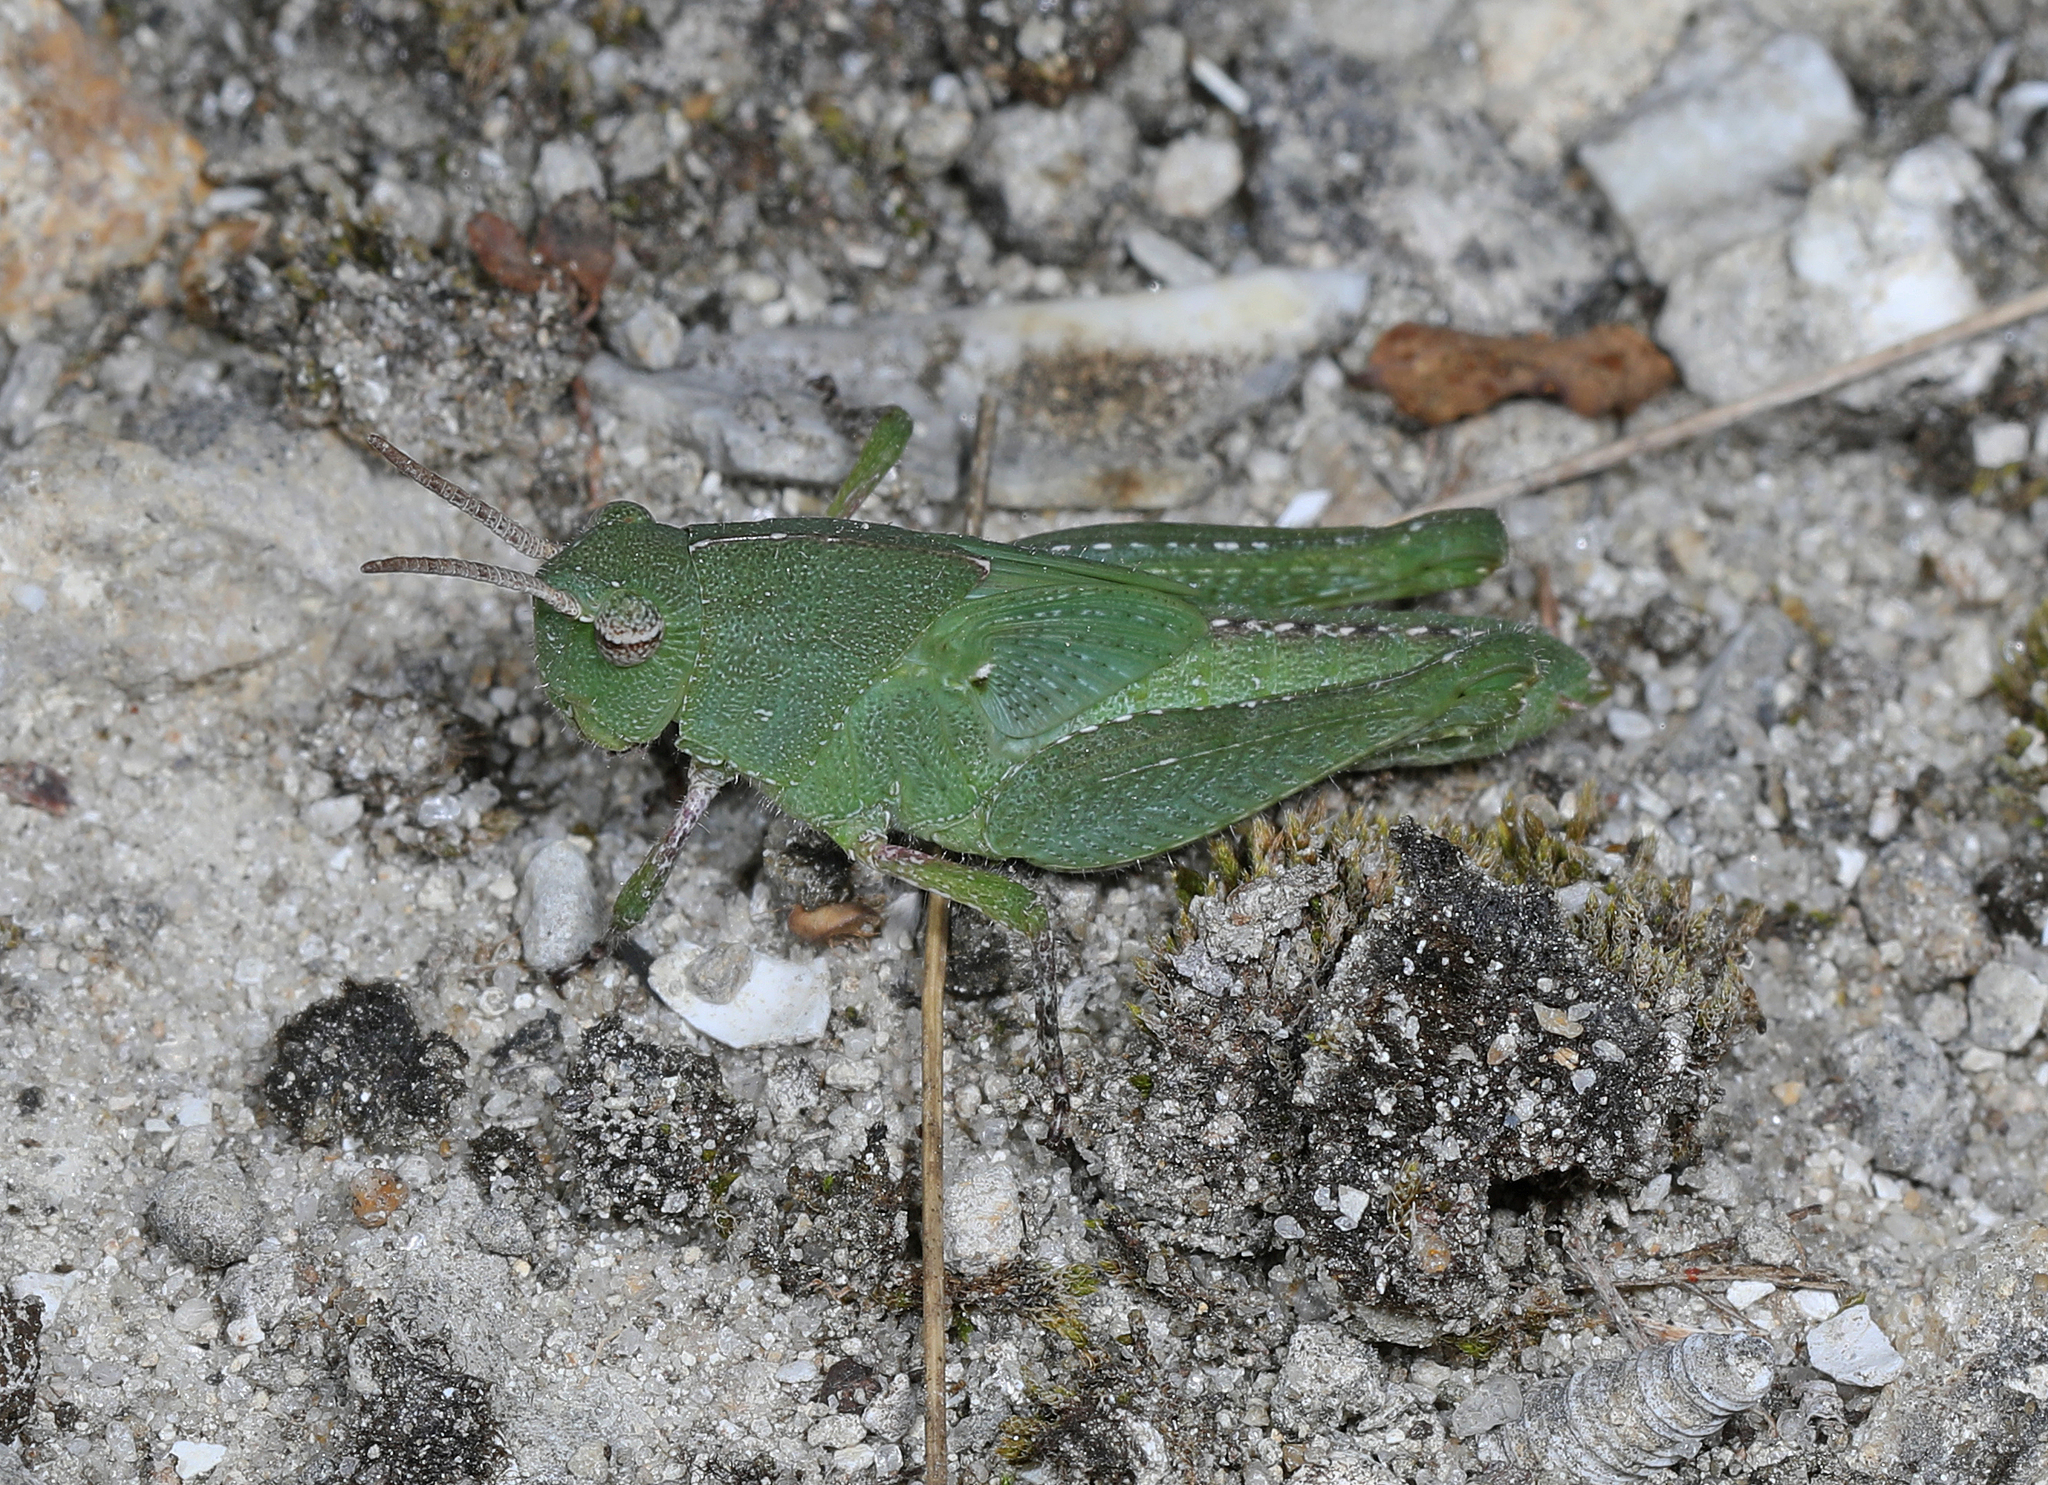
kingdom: Animalia
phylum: Arthropoda
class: Insecta
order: Orthoptera
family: Acrididae
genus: Chortophaga
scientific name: Chortophaga australior
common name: Southern green-striped grasshopper
